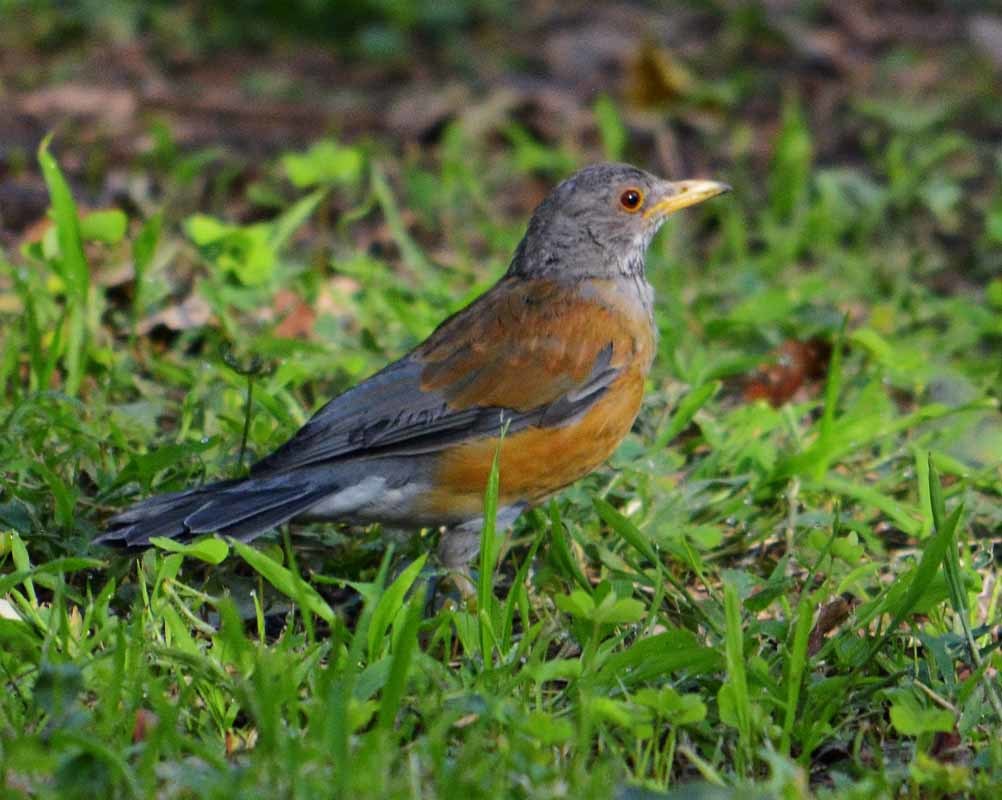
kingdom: Animalia
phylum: Chordata
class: Aves
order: Passeriformes
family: Turdidae
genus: Turdus
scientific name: Turdus rufopalliatus
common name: Rufous-backed robin
